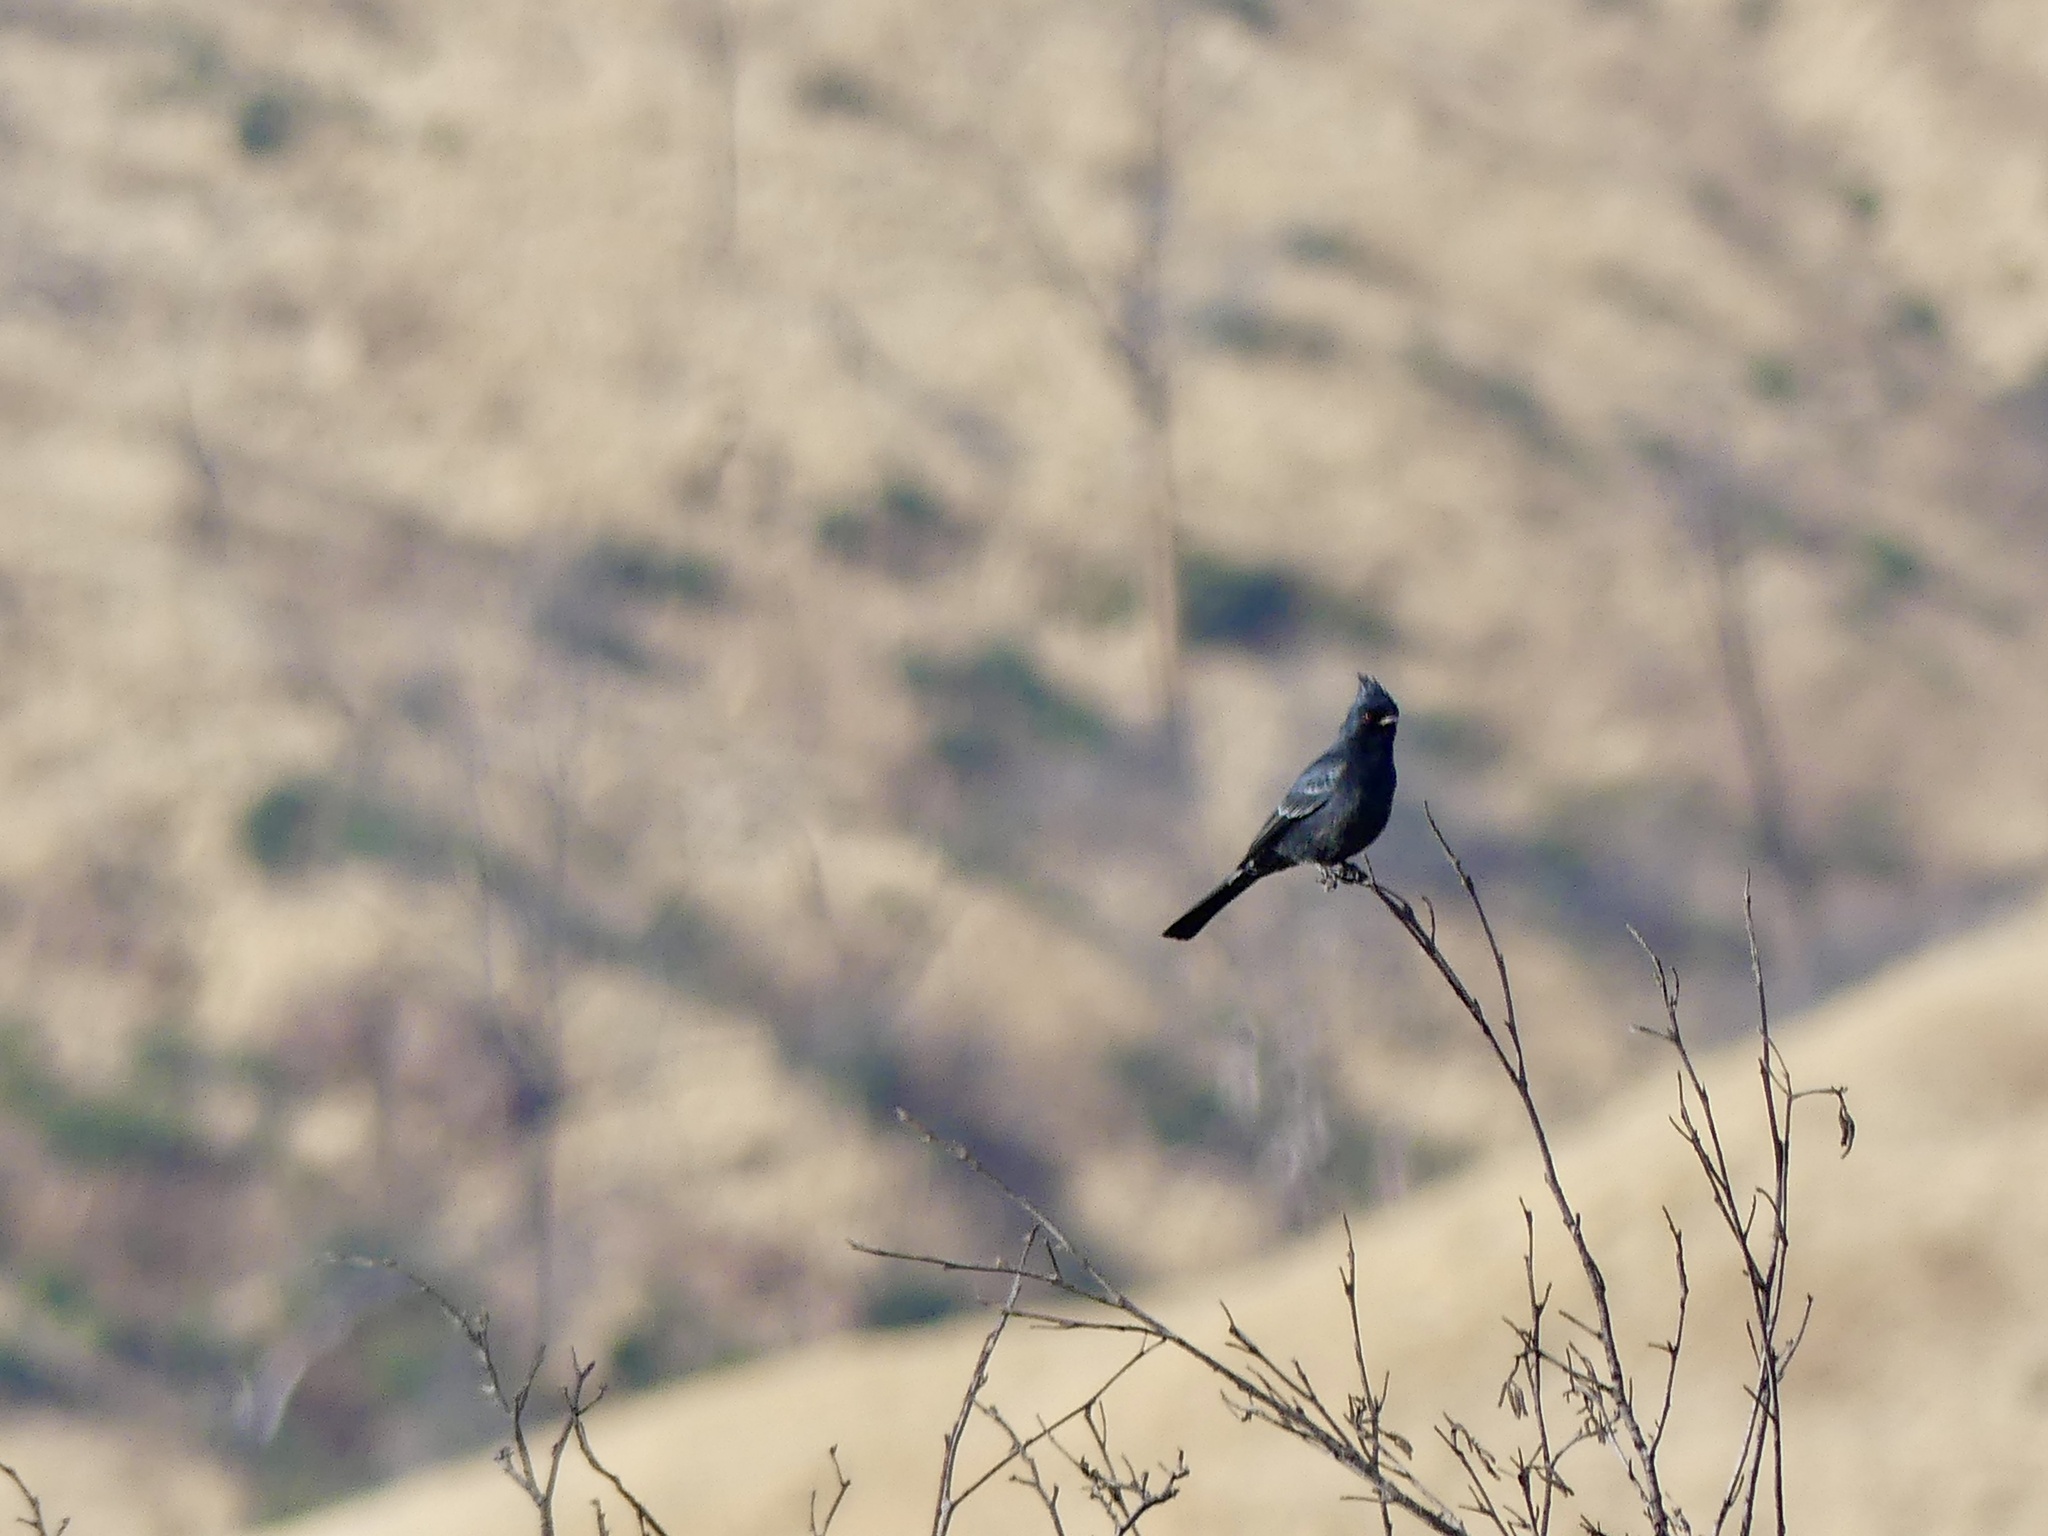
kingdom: Animalia
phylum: Chordata
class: Aves
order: Passeriformes
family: Ptilogonatidae
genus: Phainopepla
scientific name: Phainopepla nitens
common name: Phainopepla
